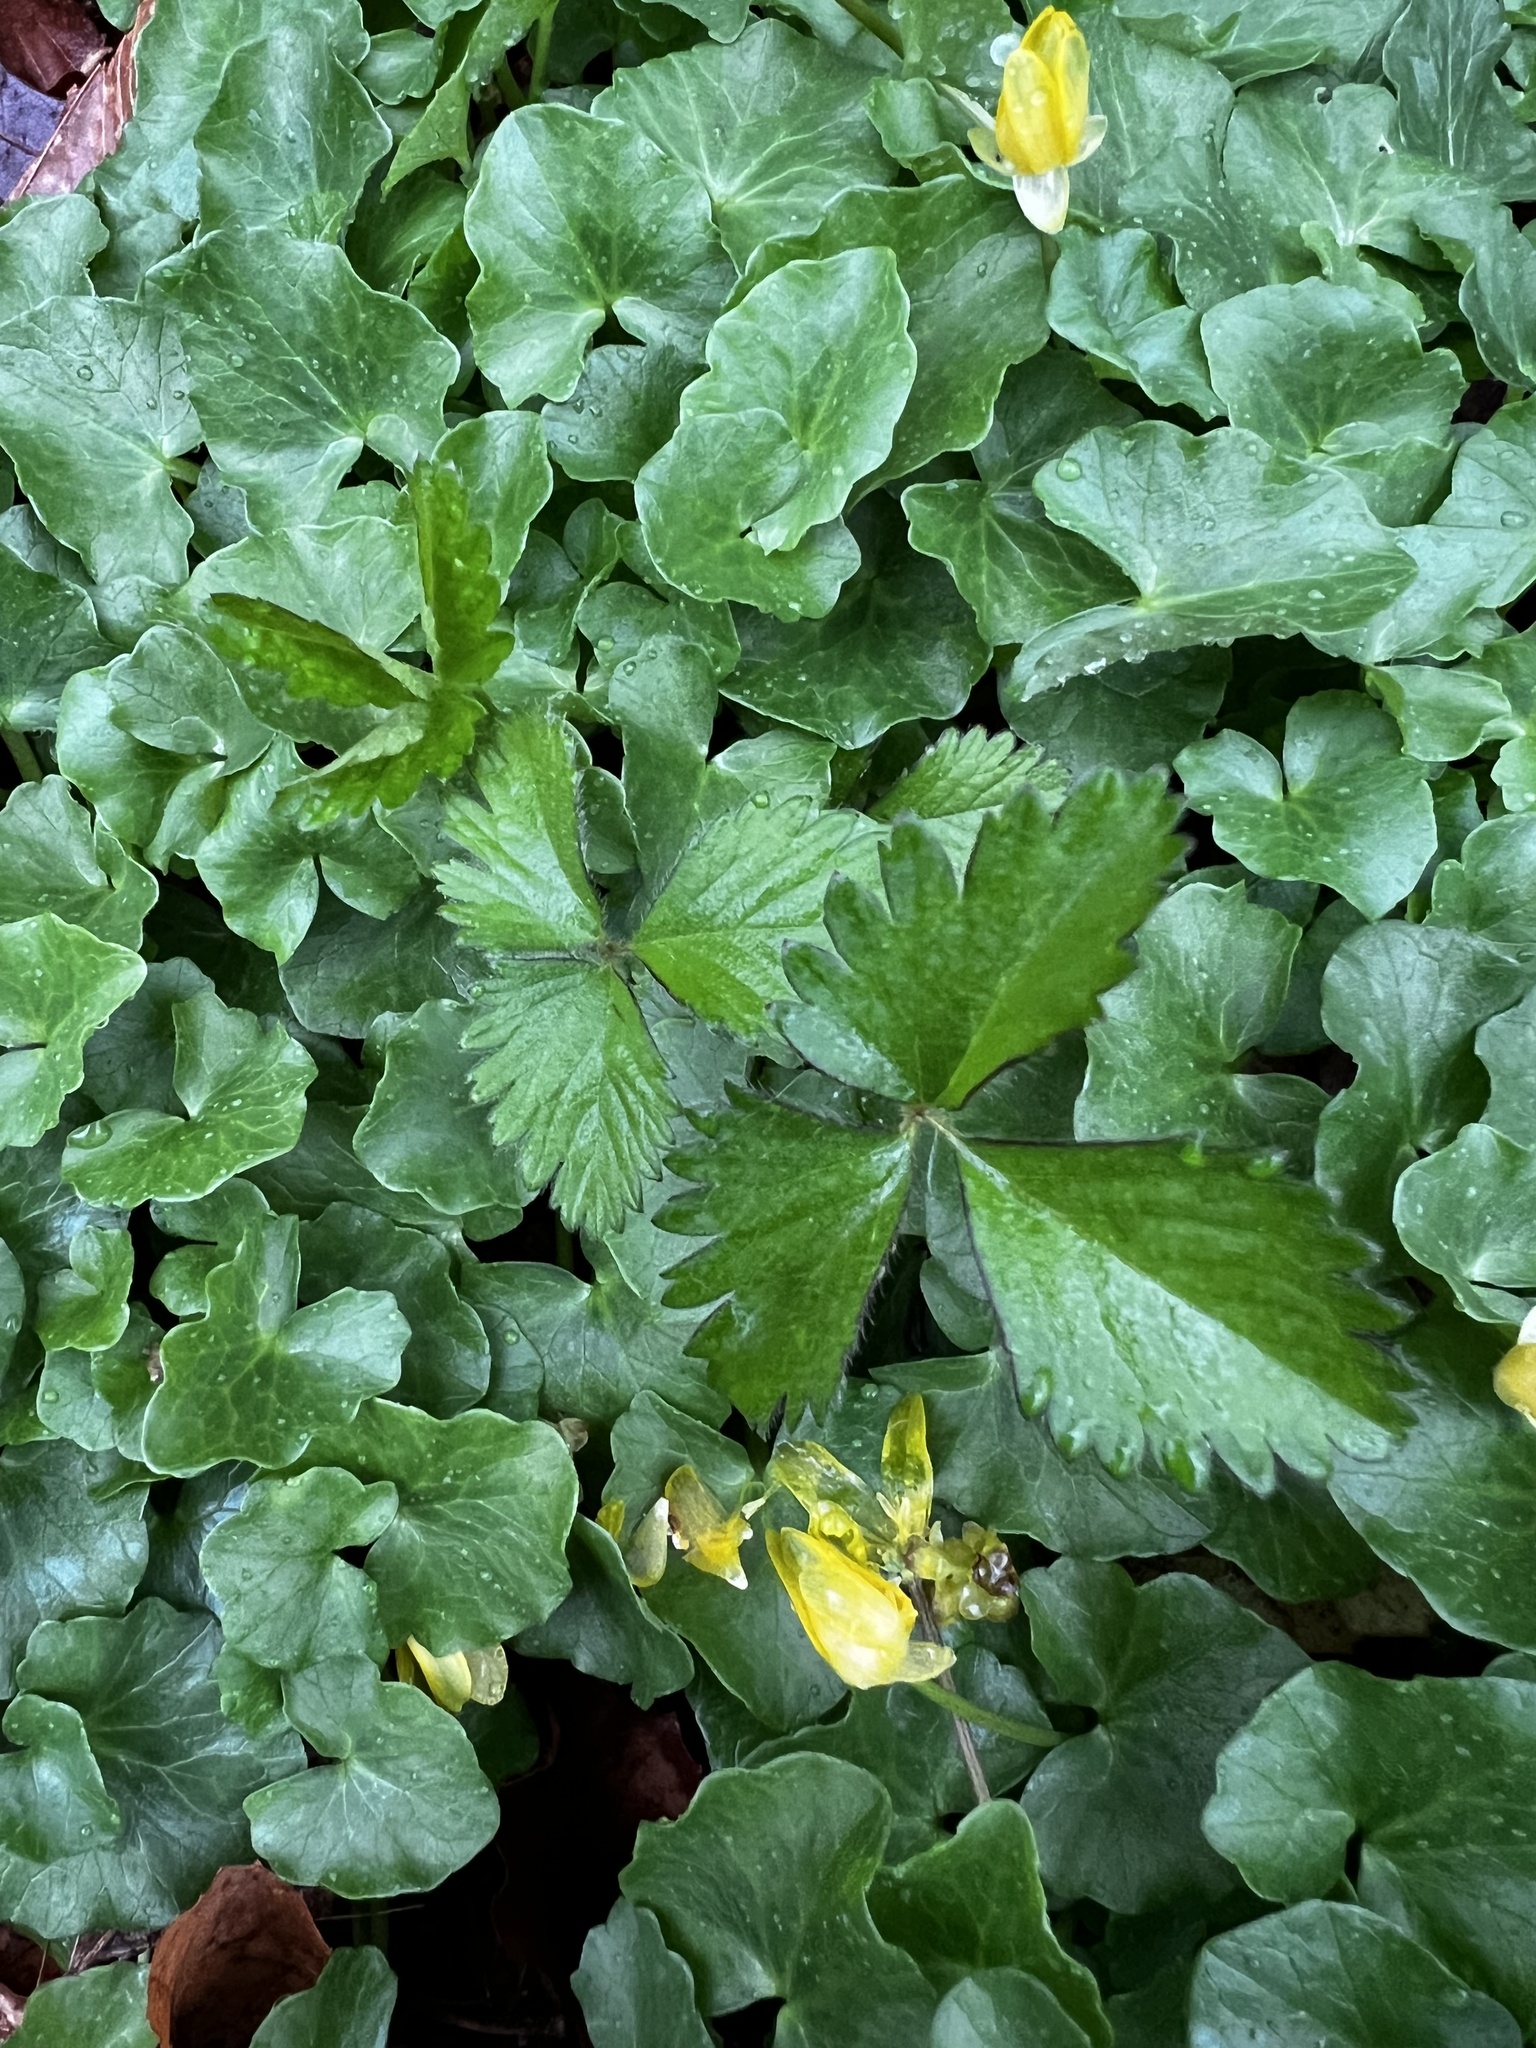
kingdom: Plantae
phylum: Tracheophyta
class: Magnoliopsida
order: Rosales
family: Rosaceae
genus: Potentilla
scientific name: Potentilla indica
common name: Yellow-flowered strawberry
